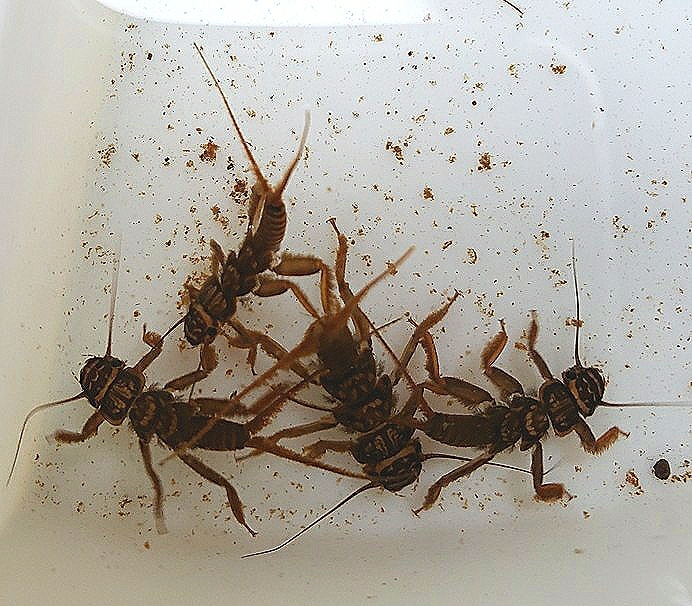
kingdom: Animalia
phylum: Arthropoda
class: Insecta
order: Plecoptera
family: Perlidae
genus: Acroneuria
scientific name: Acroneuria abnormis
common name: Common stone
